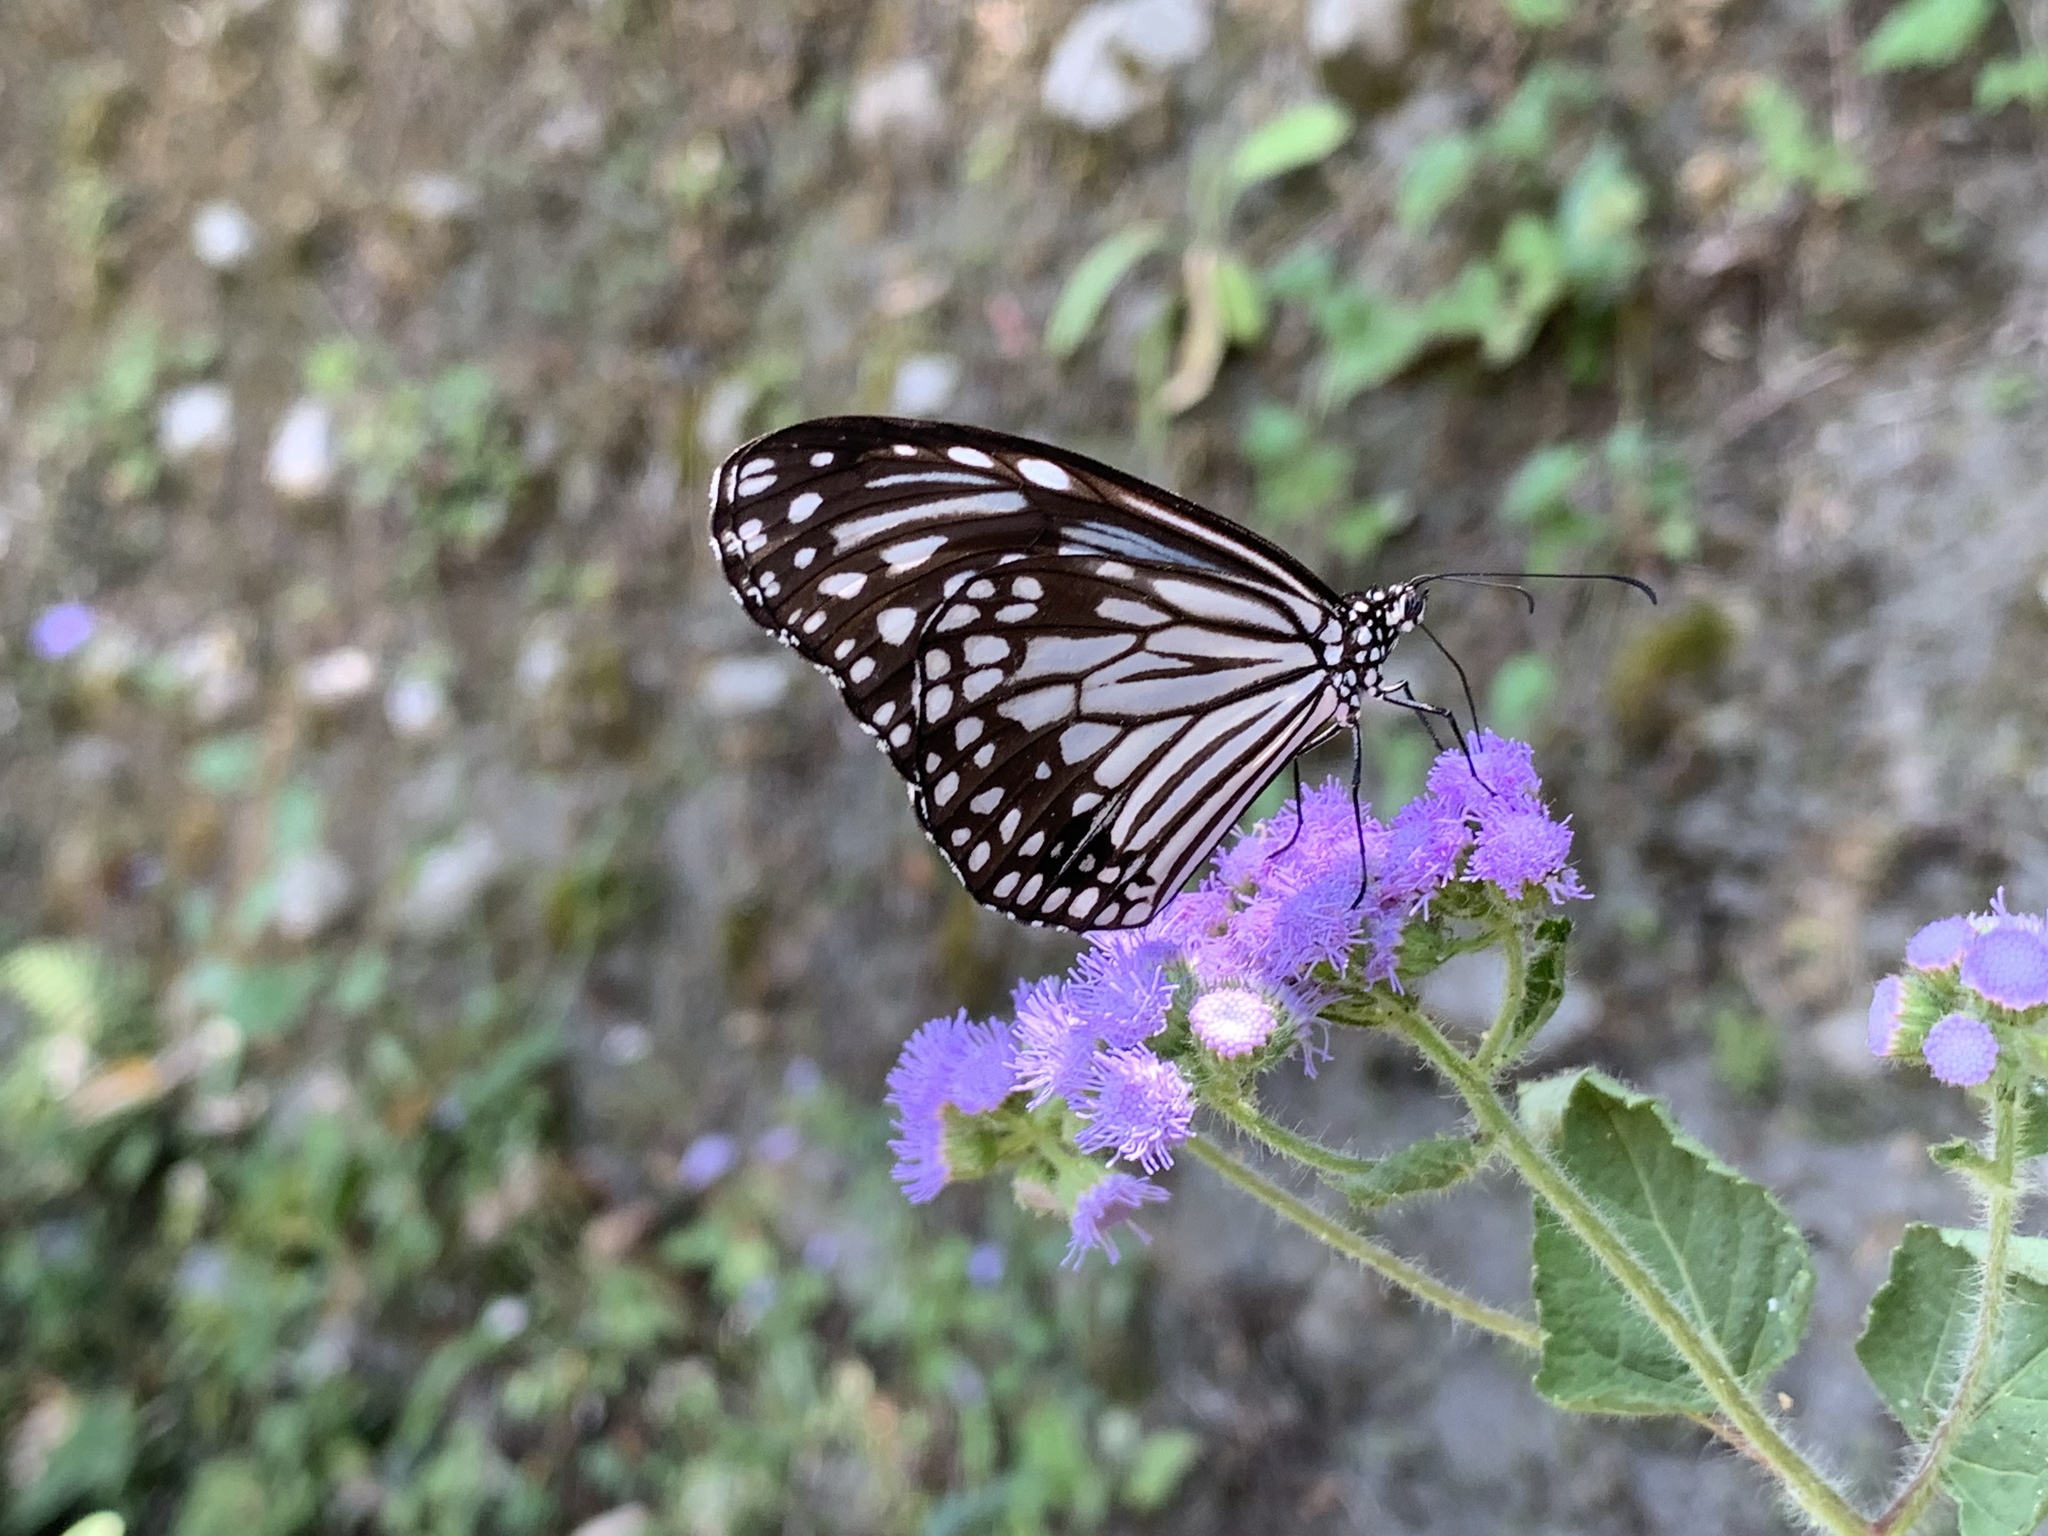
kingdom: Animalia
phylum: Arthropoda
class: Insecta
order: Lepidoptera
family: Nymphalidae
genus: Parantica
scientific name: Parantica aglea
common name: Glassy tiger
